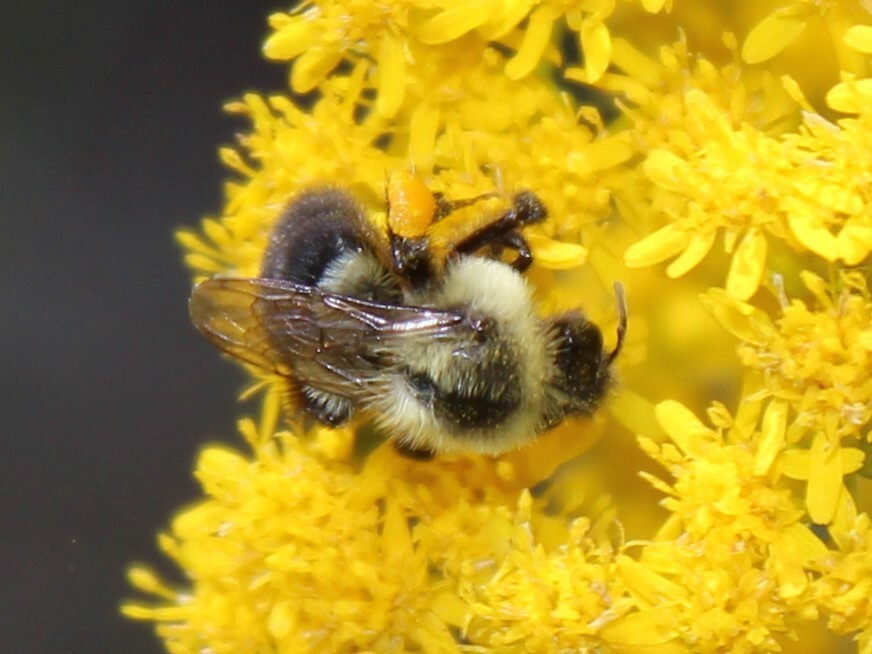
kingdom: Animalia
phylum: Arthropoda
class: Insecta
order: Hymenoptera
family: Apidae
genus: Bombus
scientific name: Bombus impatiens
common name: Common eastern bumble bee
